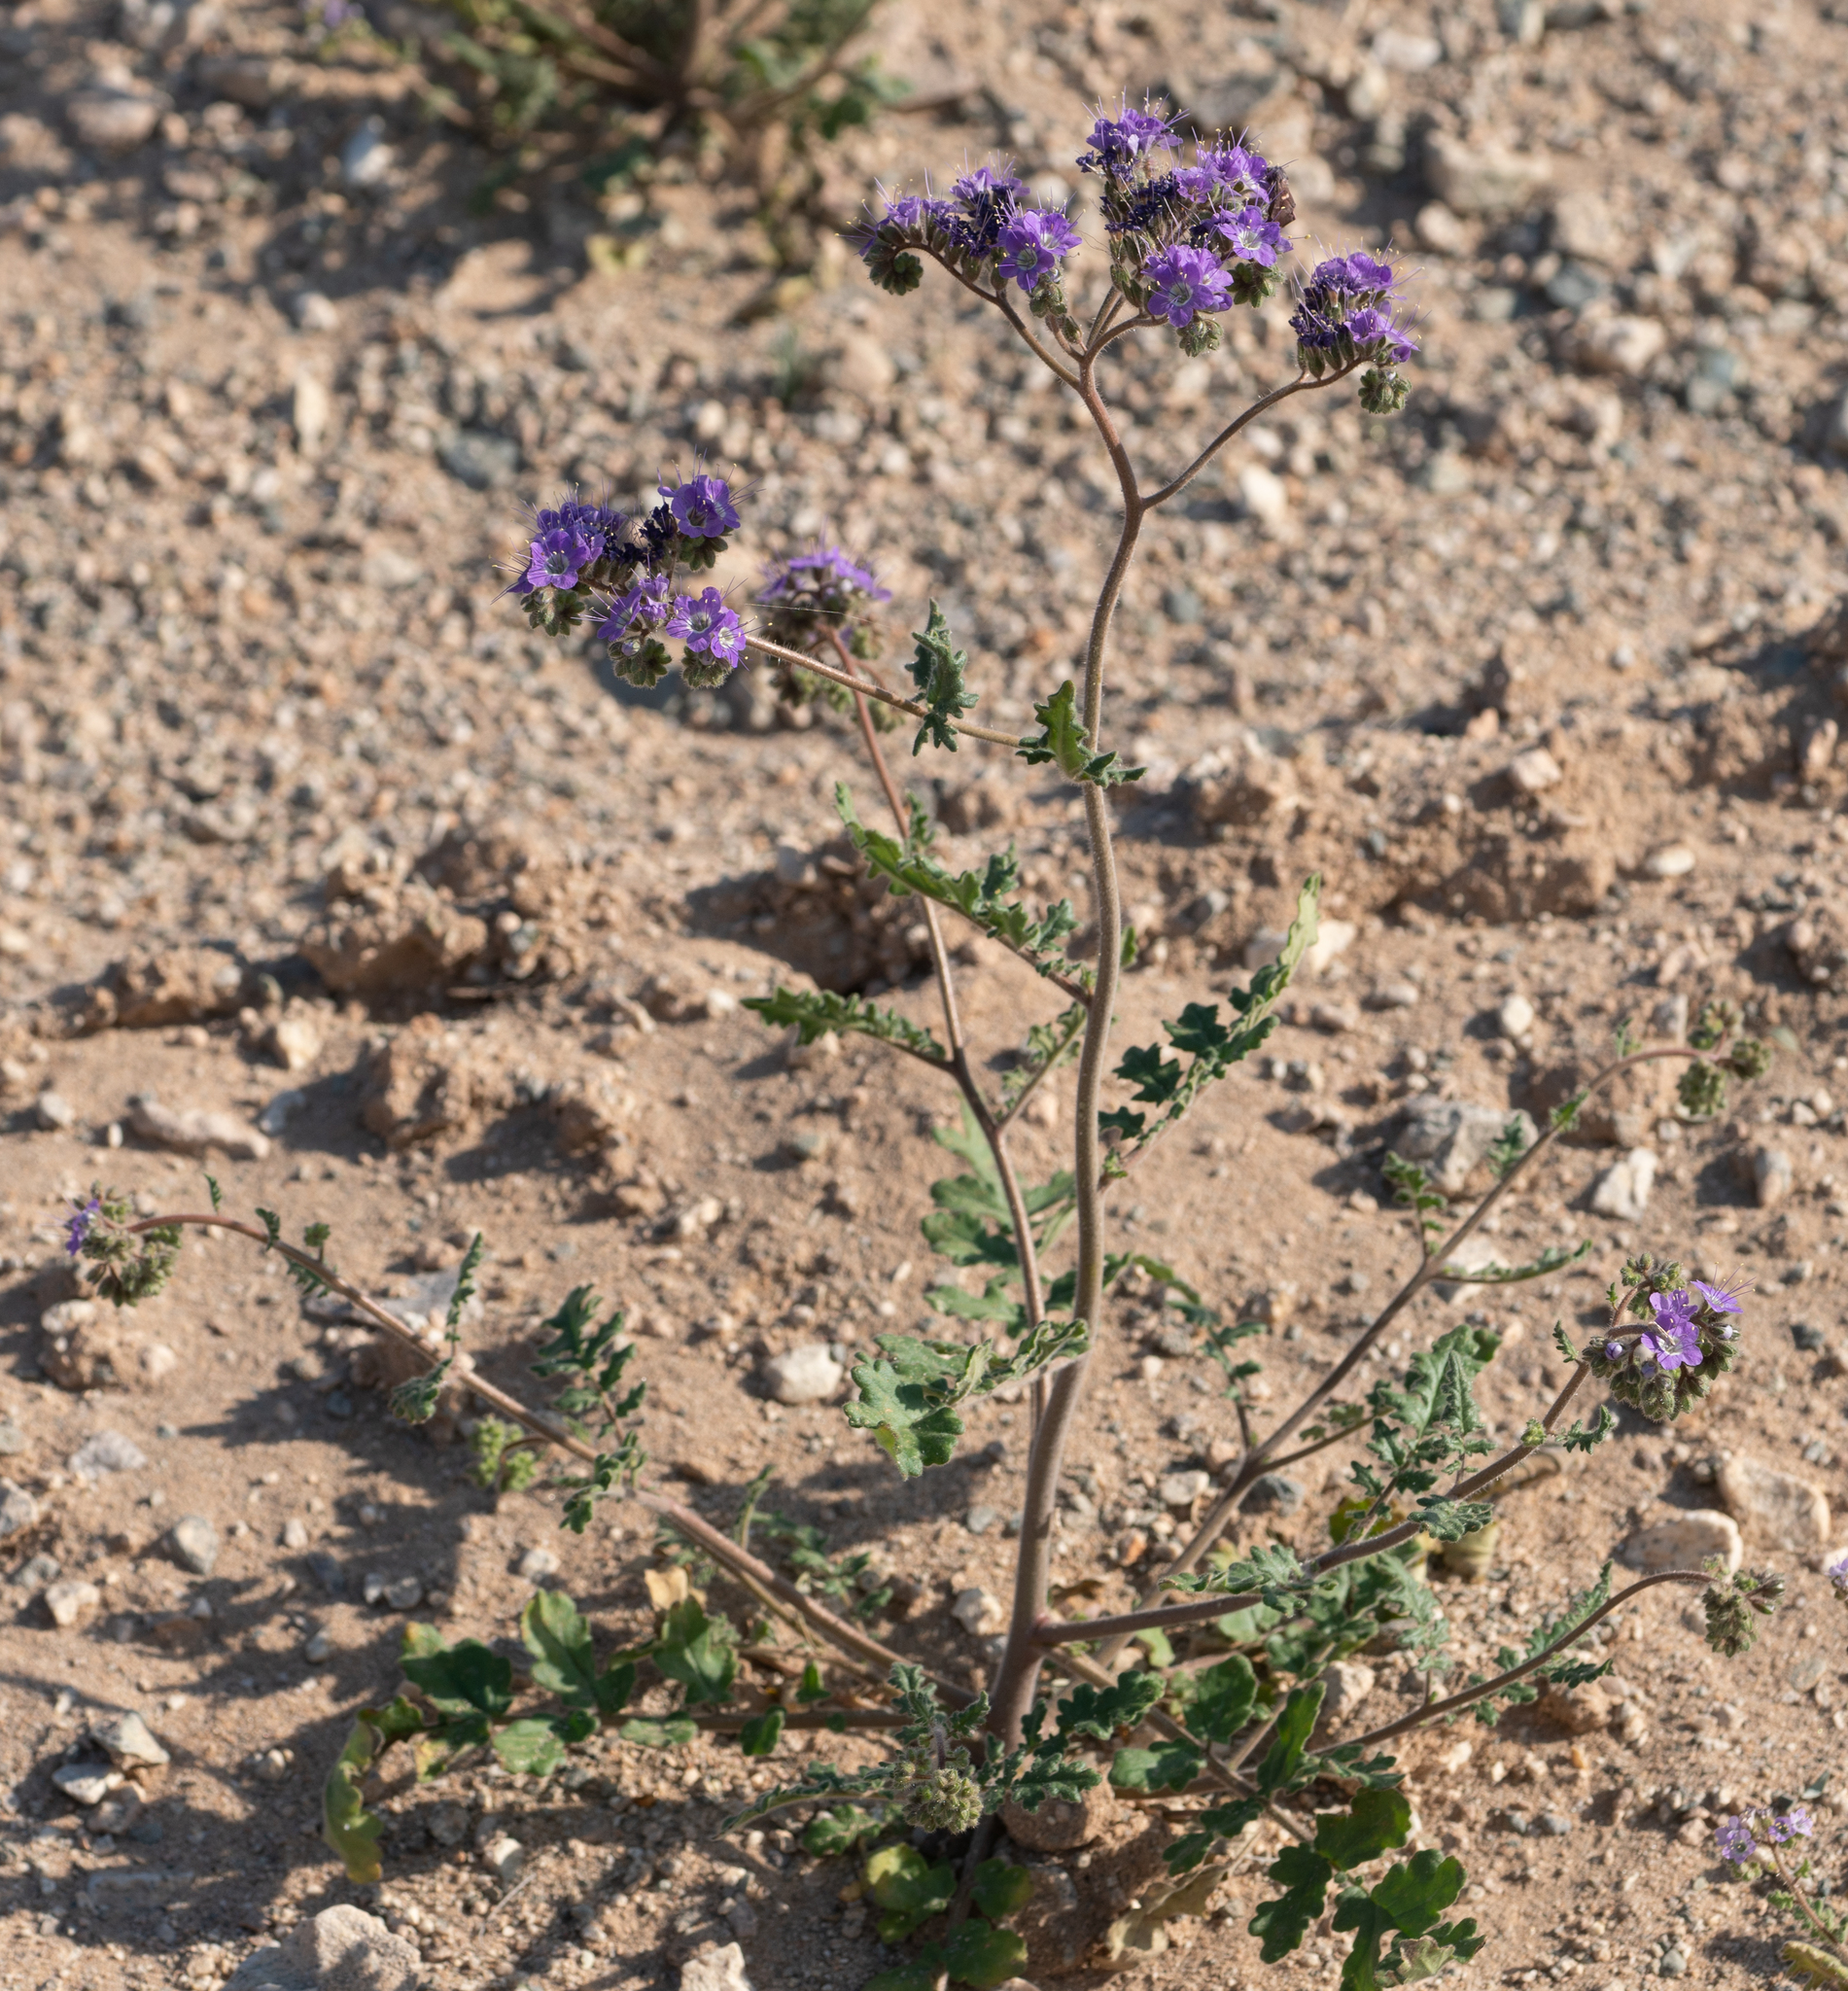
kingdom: Plantae
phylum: Tracheophyta
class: Magnoliopsida
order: Boraginales
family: Hydrophyllaceae
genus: Phacelia
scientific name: Phacelia crenulata
